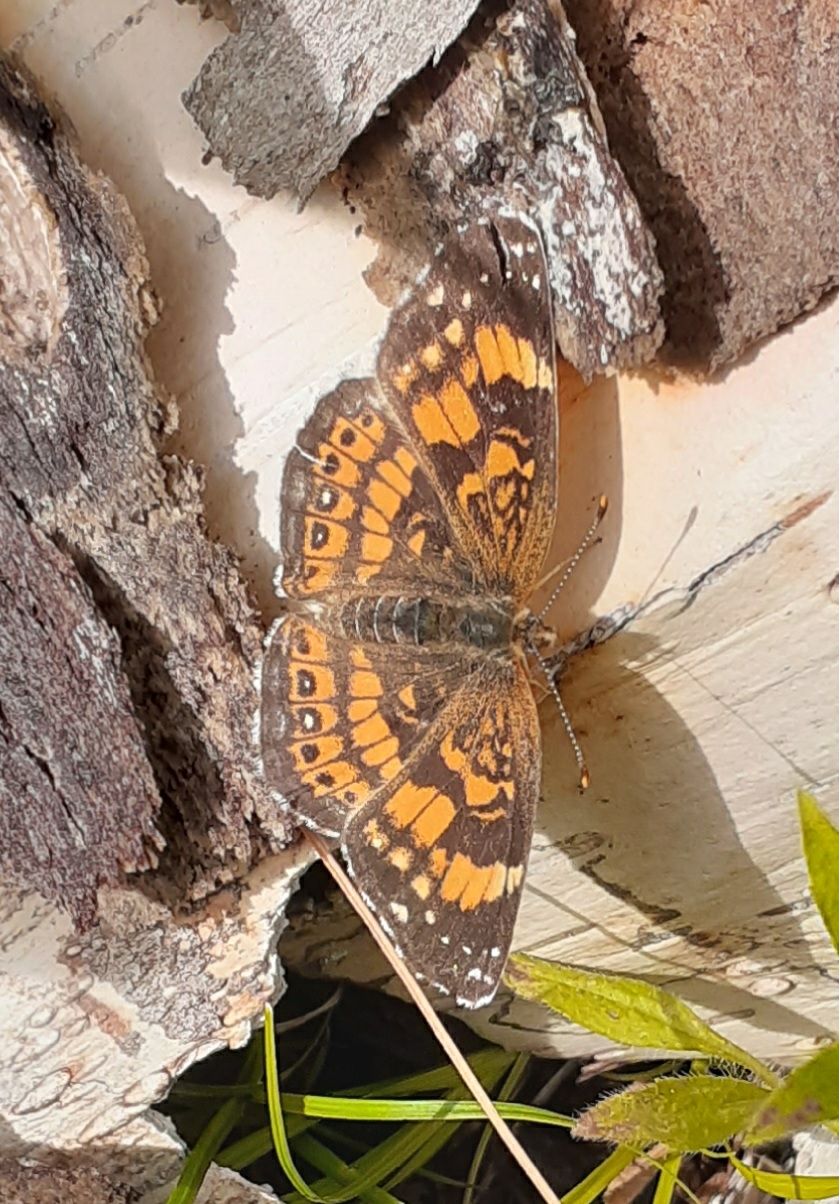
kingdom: Animalia
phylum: Arthropoda
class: Insecta
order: Lepidoptera
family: Nymphalidae
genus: Chlosyne
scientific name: Chlosyne nycteis
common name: Silvery checkerspot
